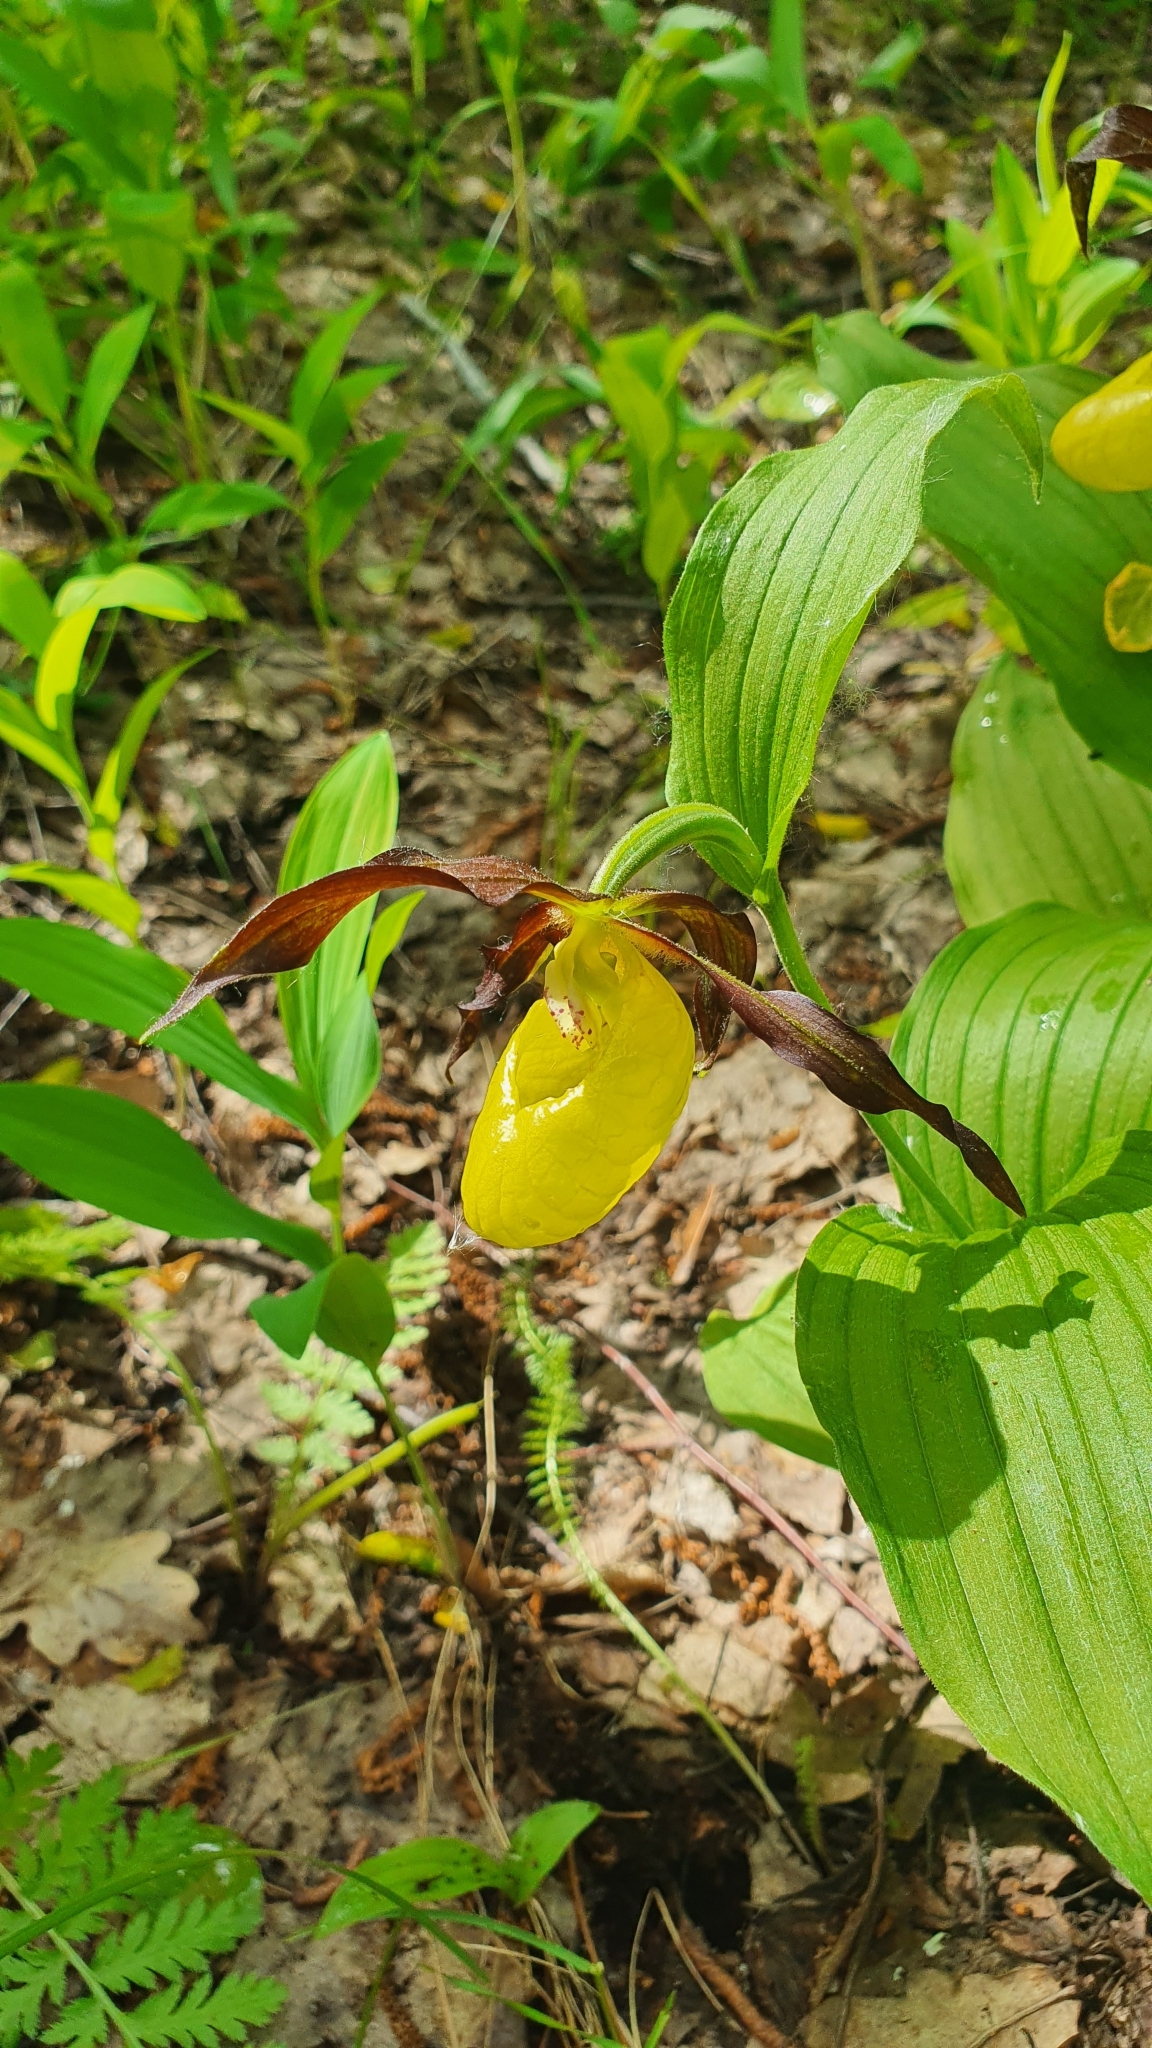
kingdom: Plantae
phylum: Tracheophyta
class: Liliopsida
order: Asparagales
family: Orchidaceae
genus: Cypripedium
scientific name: Cypripedium calceolus
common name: Lady's-slipper
